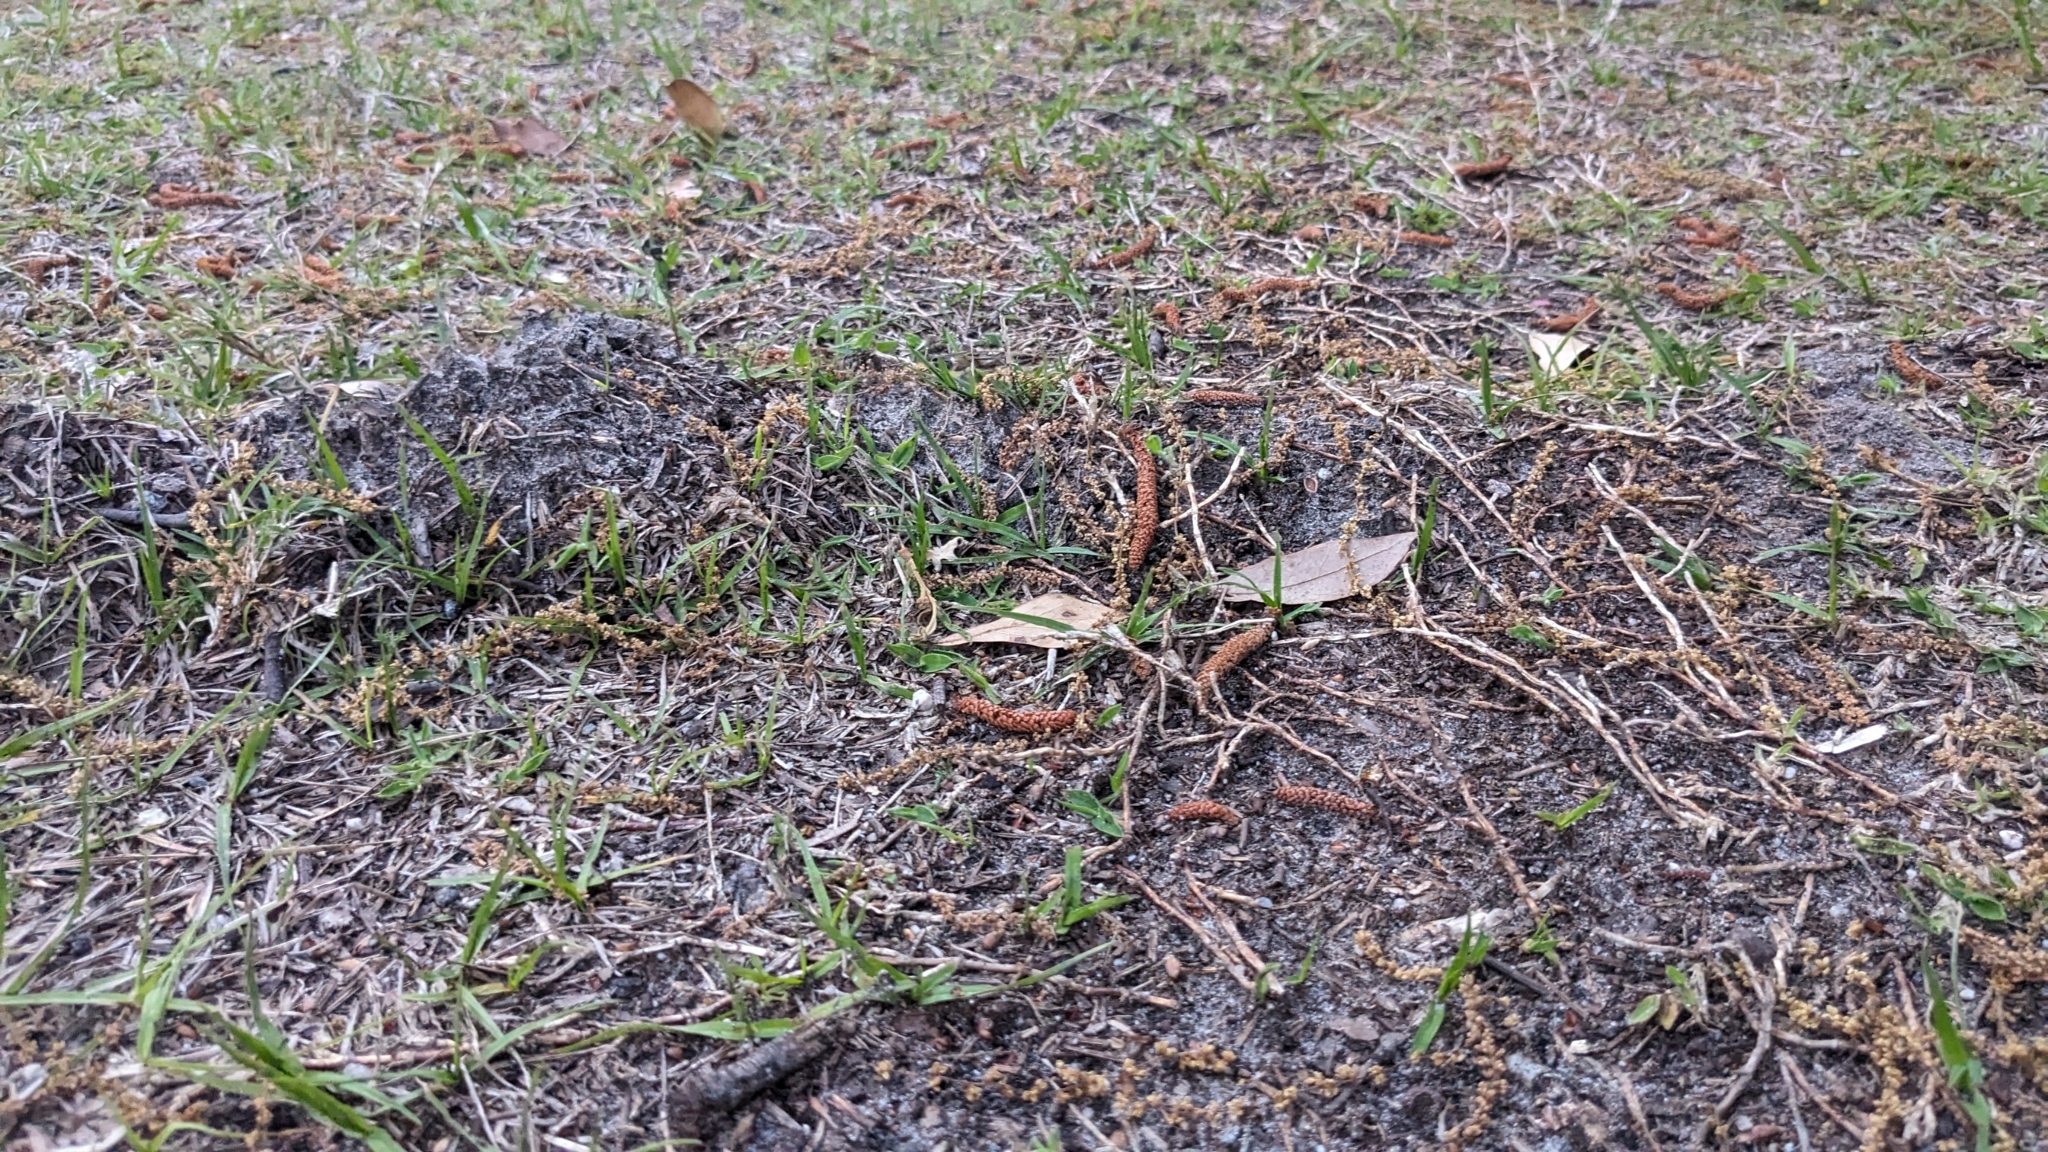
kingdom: Animalia
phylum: Chordata
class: Mammalia
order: Soricomorpha
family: Talpidae
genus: Scalopus
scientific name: Scalopus aquaticus
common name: Eastern mole
